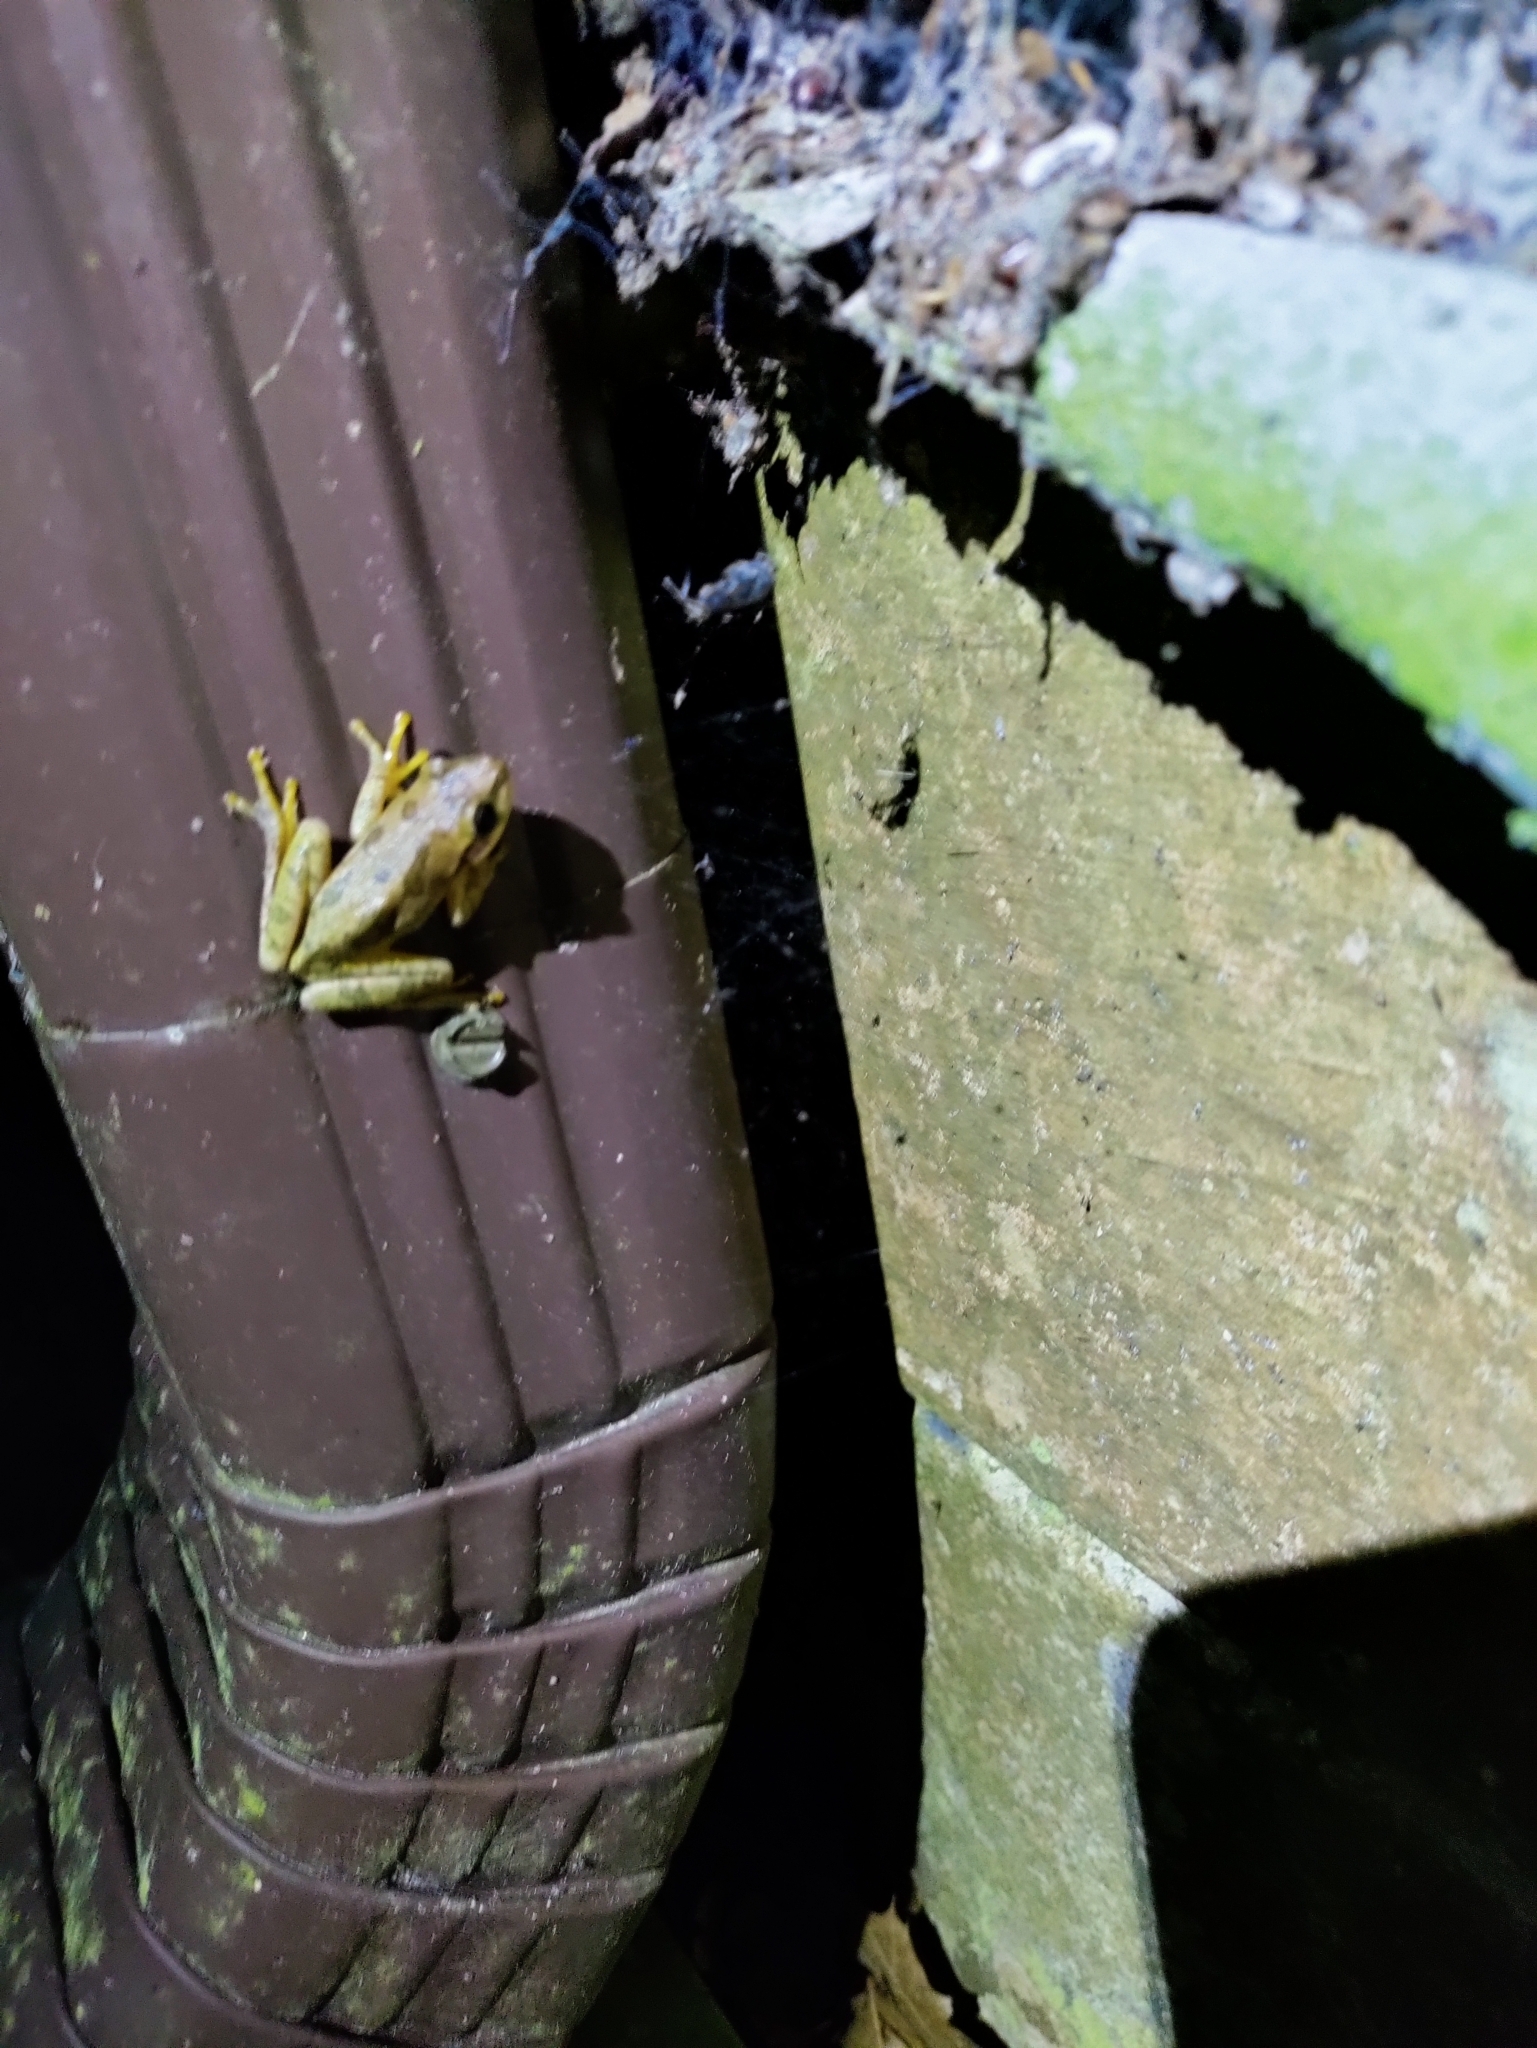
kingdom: Animalia
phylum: Chordata
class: Amphibia
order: Anura
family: Hylidae
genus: Dryophytes
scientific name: Dryophytes squirellus
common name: Squirrel treefrog
